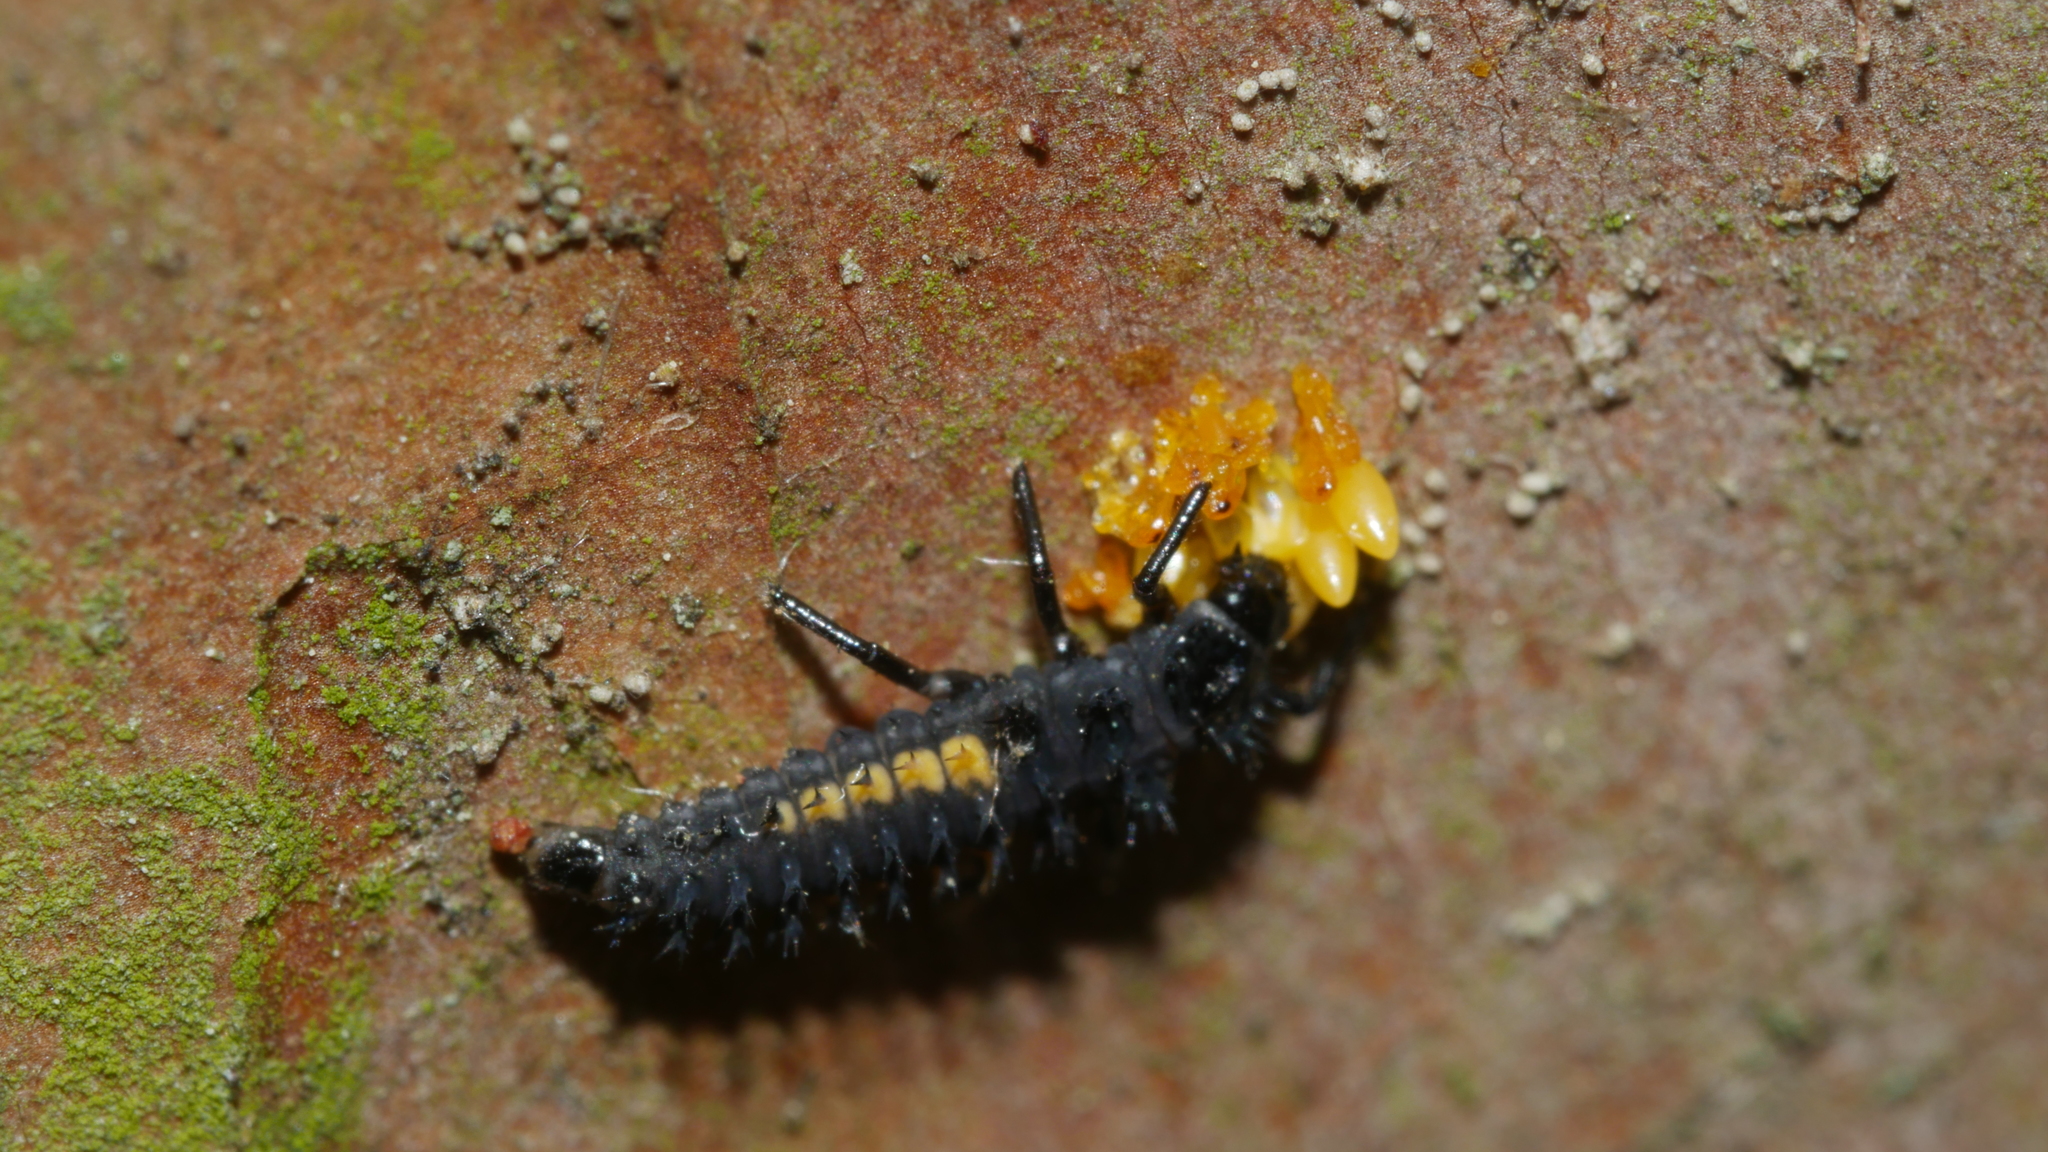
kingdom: Animalia
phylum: Arthropoda
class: Insecta
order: Coleoptera
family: Coccinellidae
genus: Harmonia
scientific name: Harmonia axyridis
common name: Harlequin ladybird
